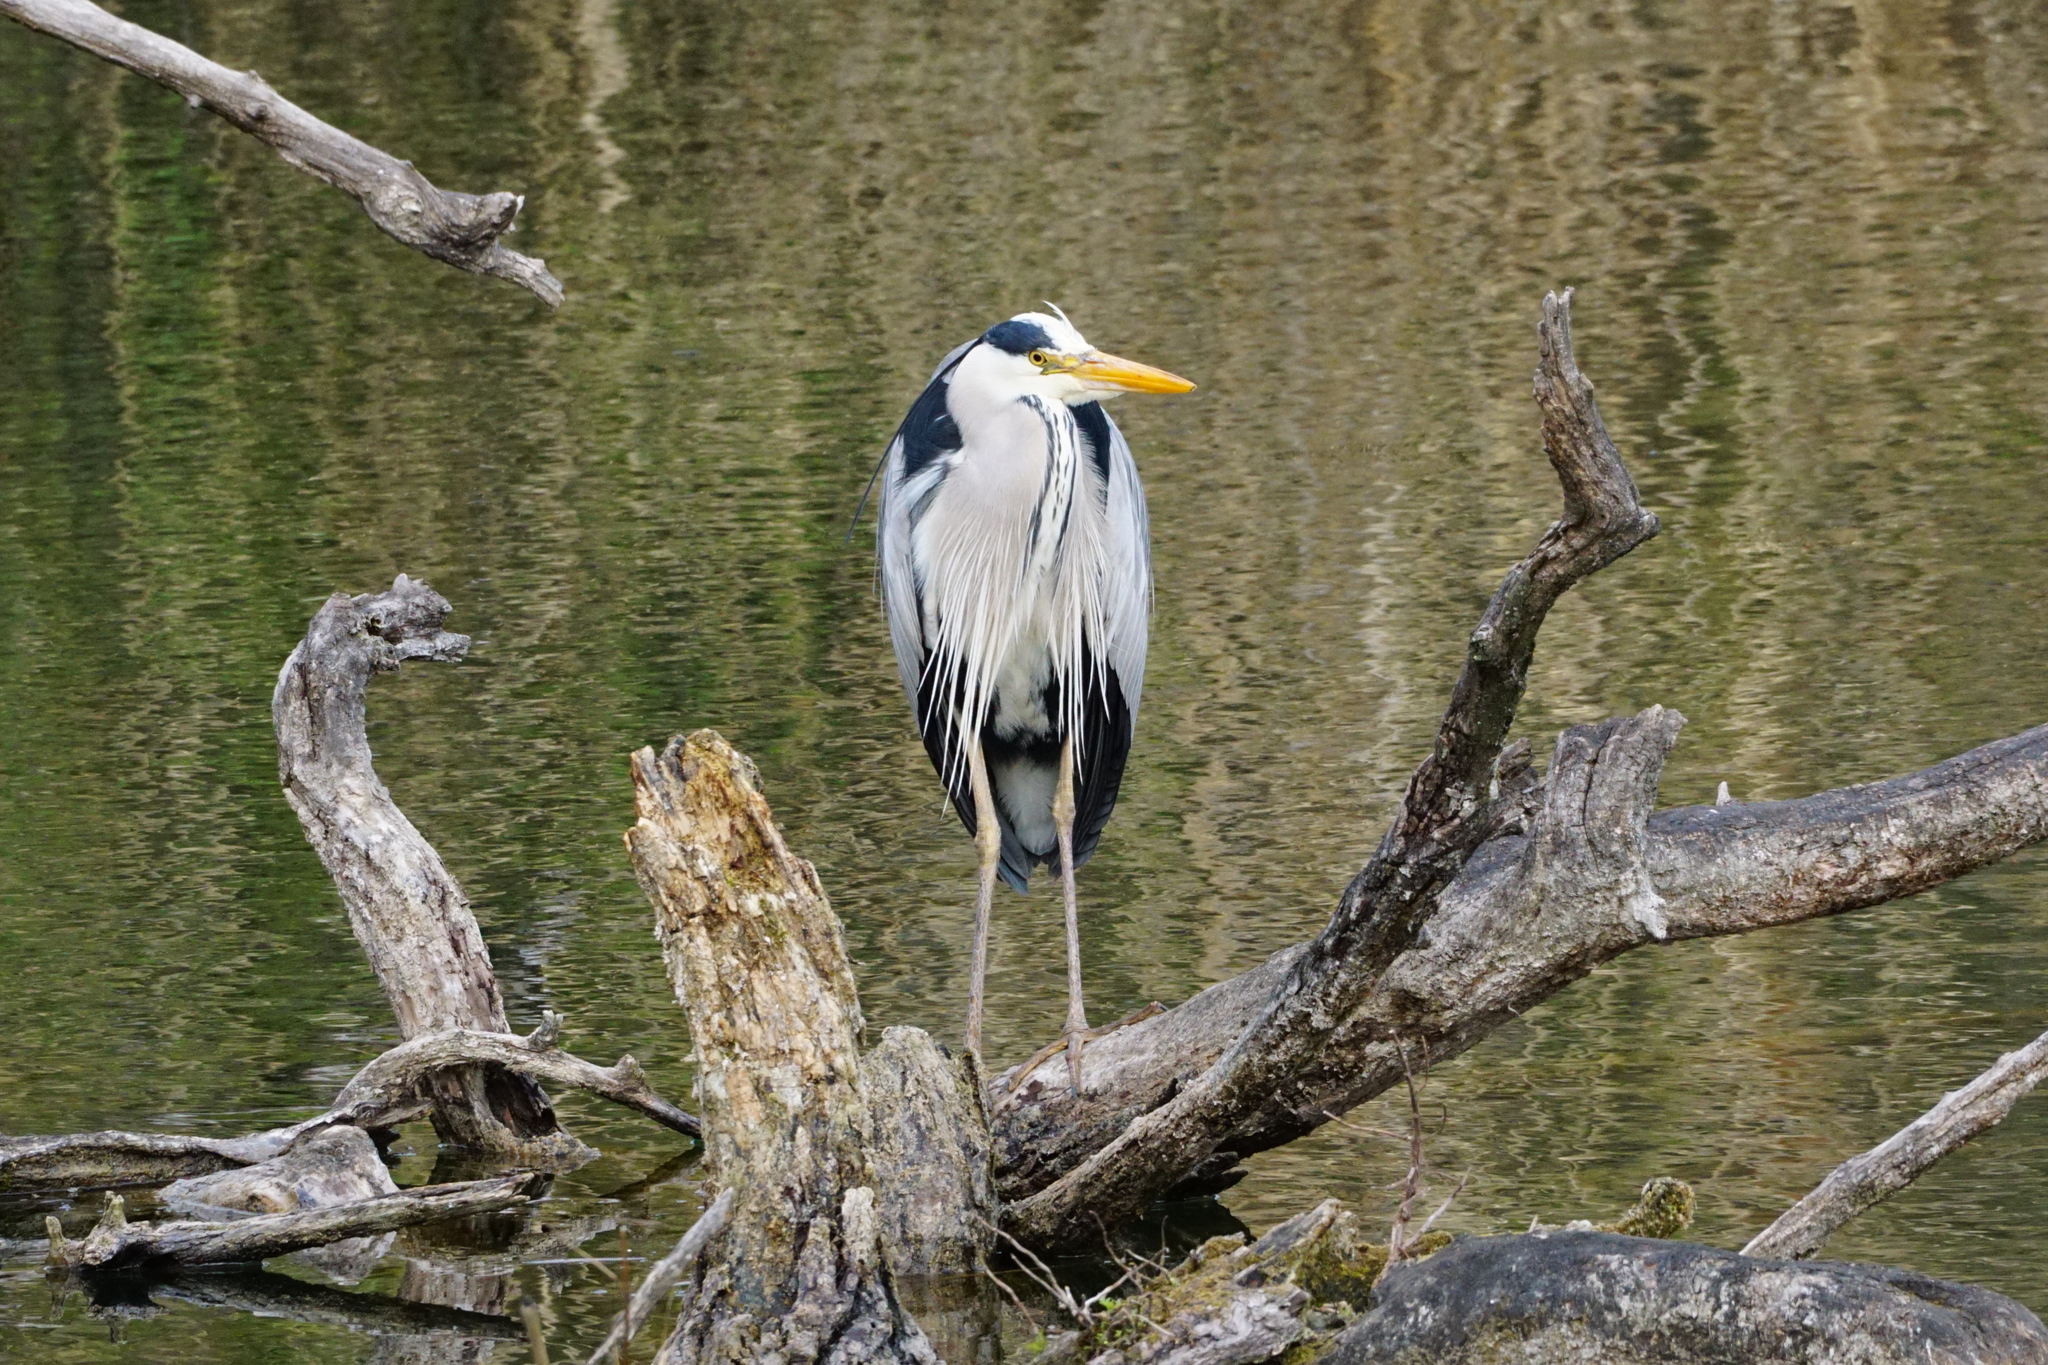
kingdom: Animalia
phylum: Chordata
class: Aves
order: Pelecaniformes
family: Ardeidae
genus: Ardea
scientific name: Ardea cinerea
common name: Grey heron
